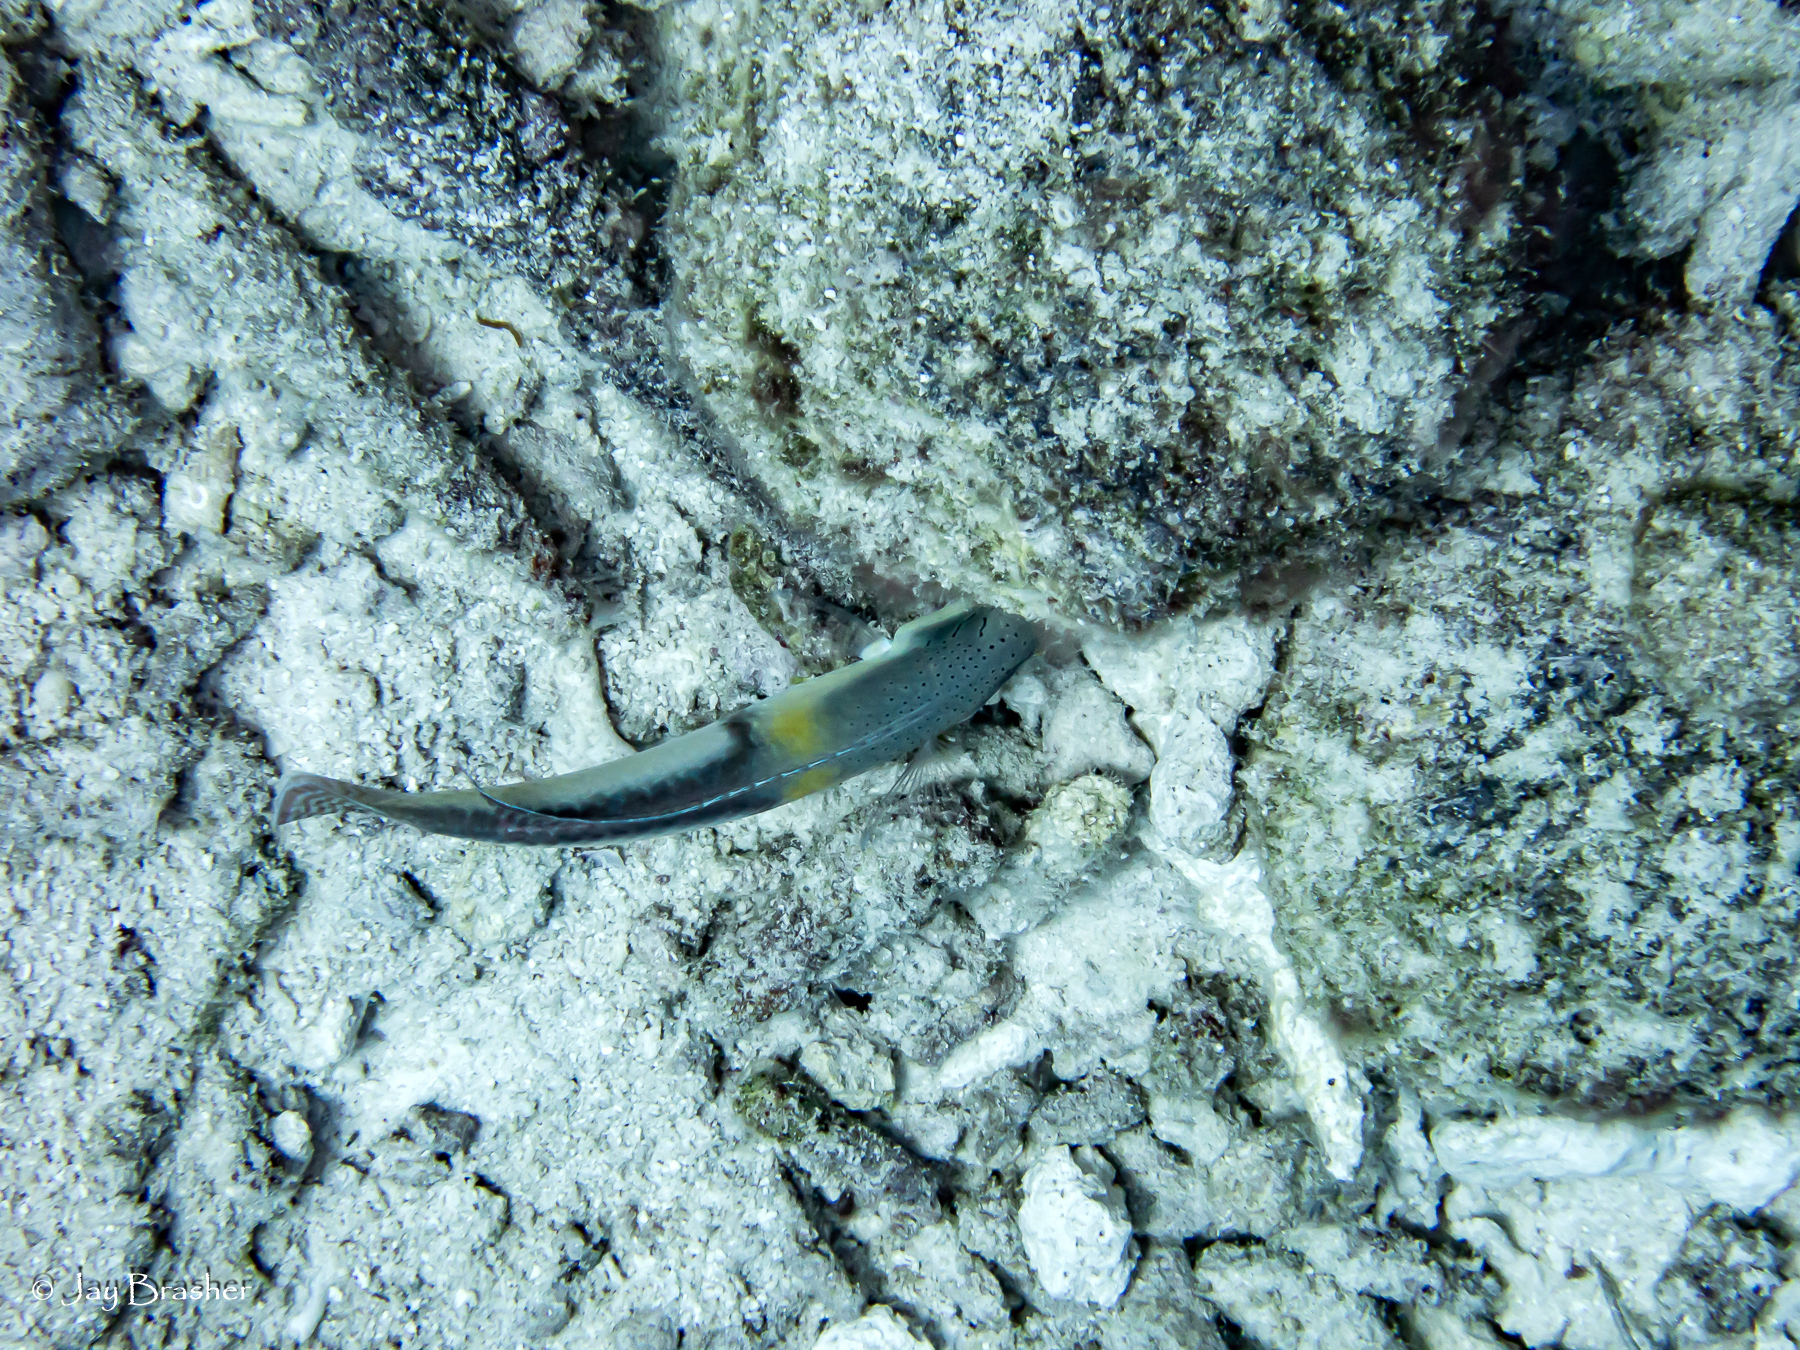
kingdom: Animalia
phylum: Chordata
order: Perciformes
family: Labridae
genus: Halichoeres
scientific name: Halichoeres garnoti
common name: Yellowhead wrasse
